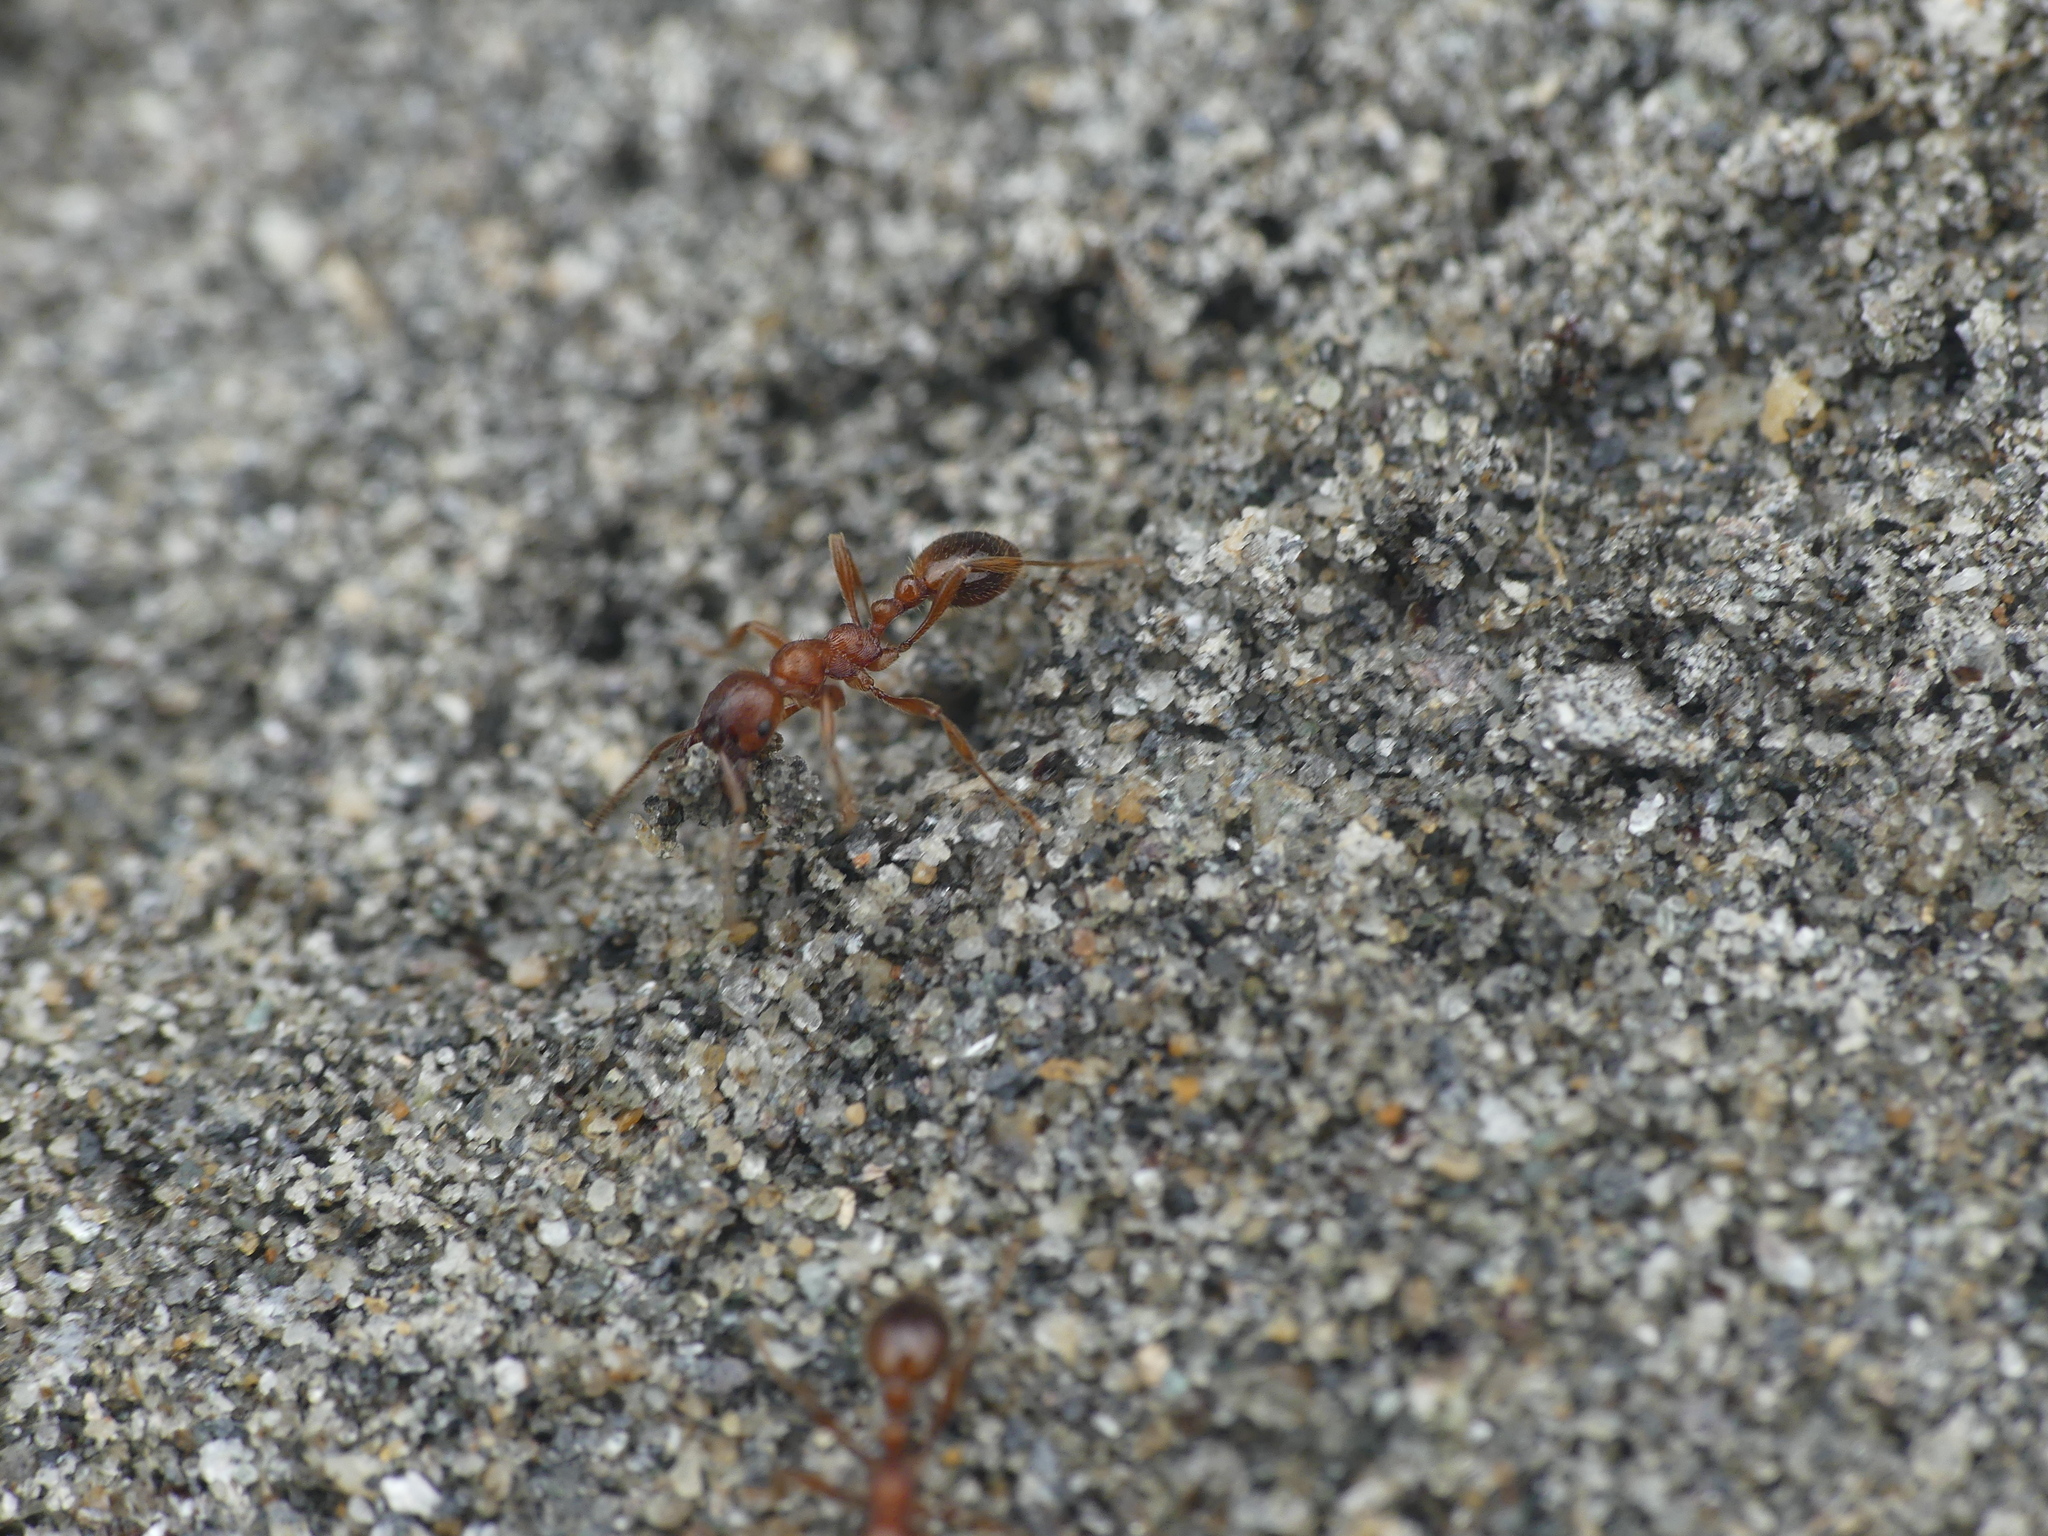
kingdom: Animalia
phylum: Arthropoda
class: Insecta
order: Hymenoptera
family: Formicidae
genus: Manica
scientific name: Manica rubida
